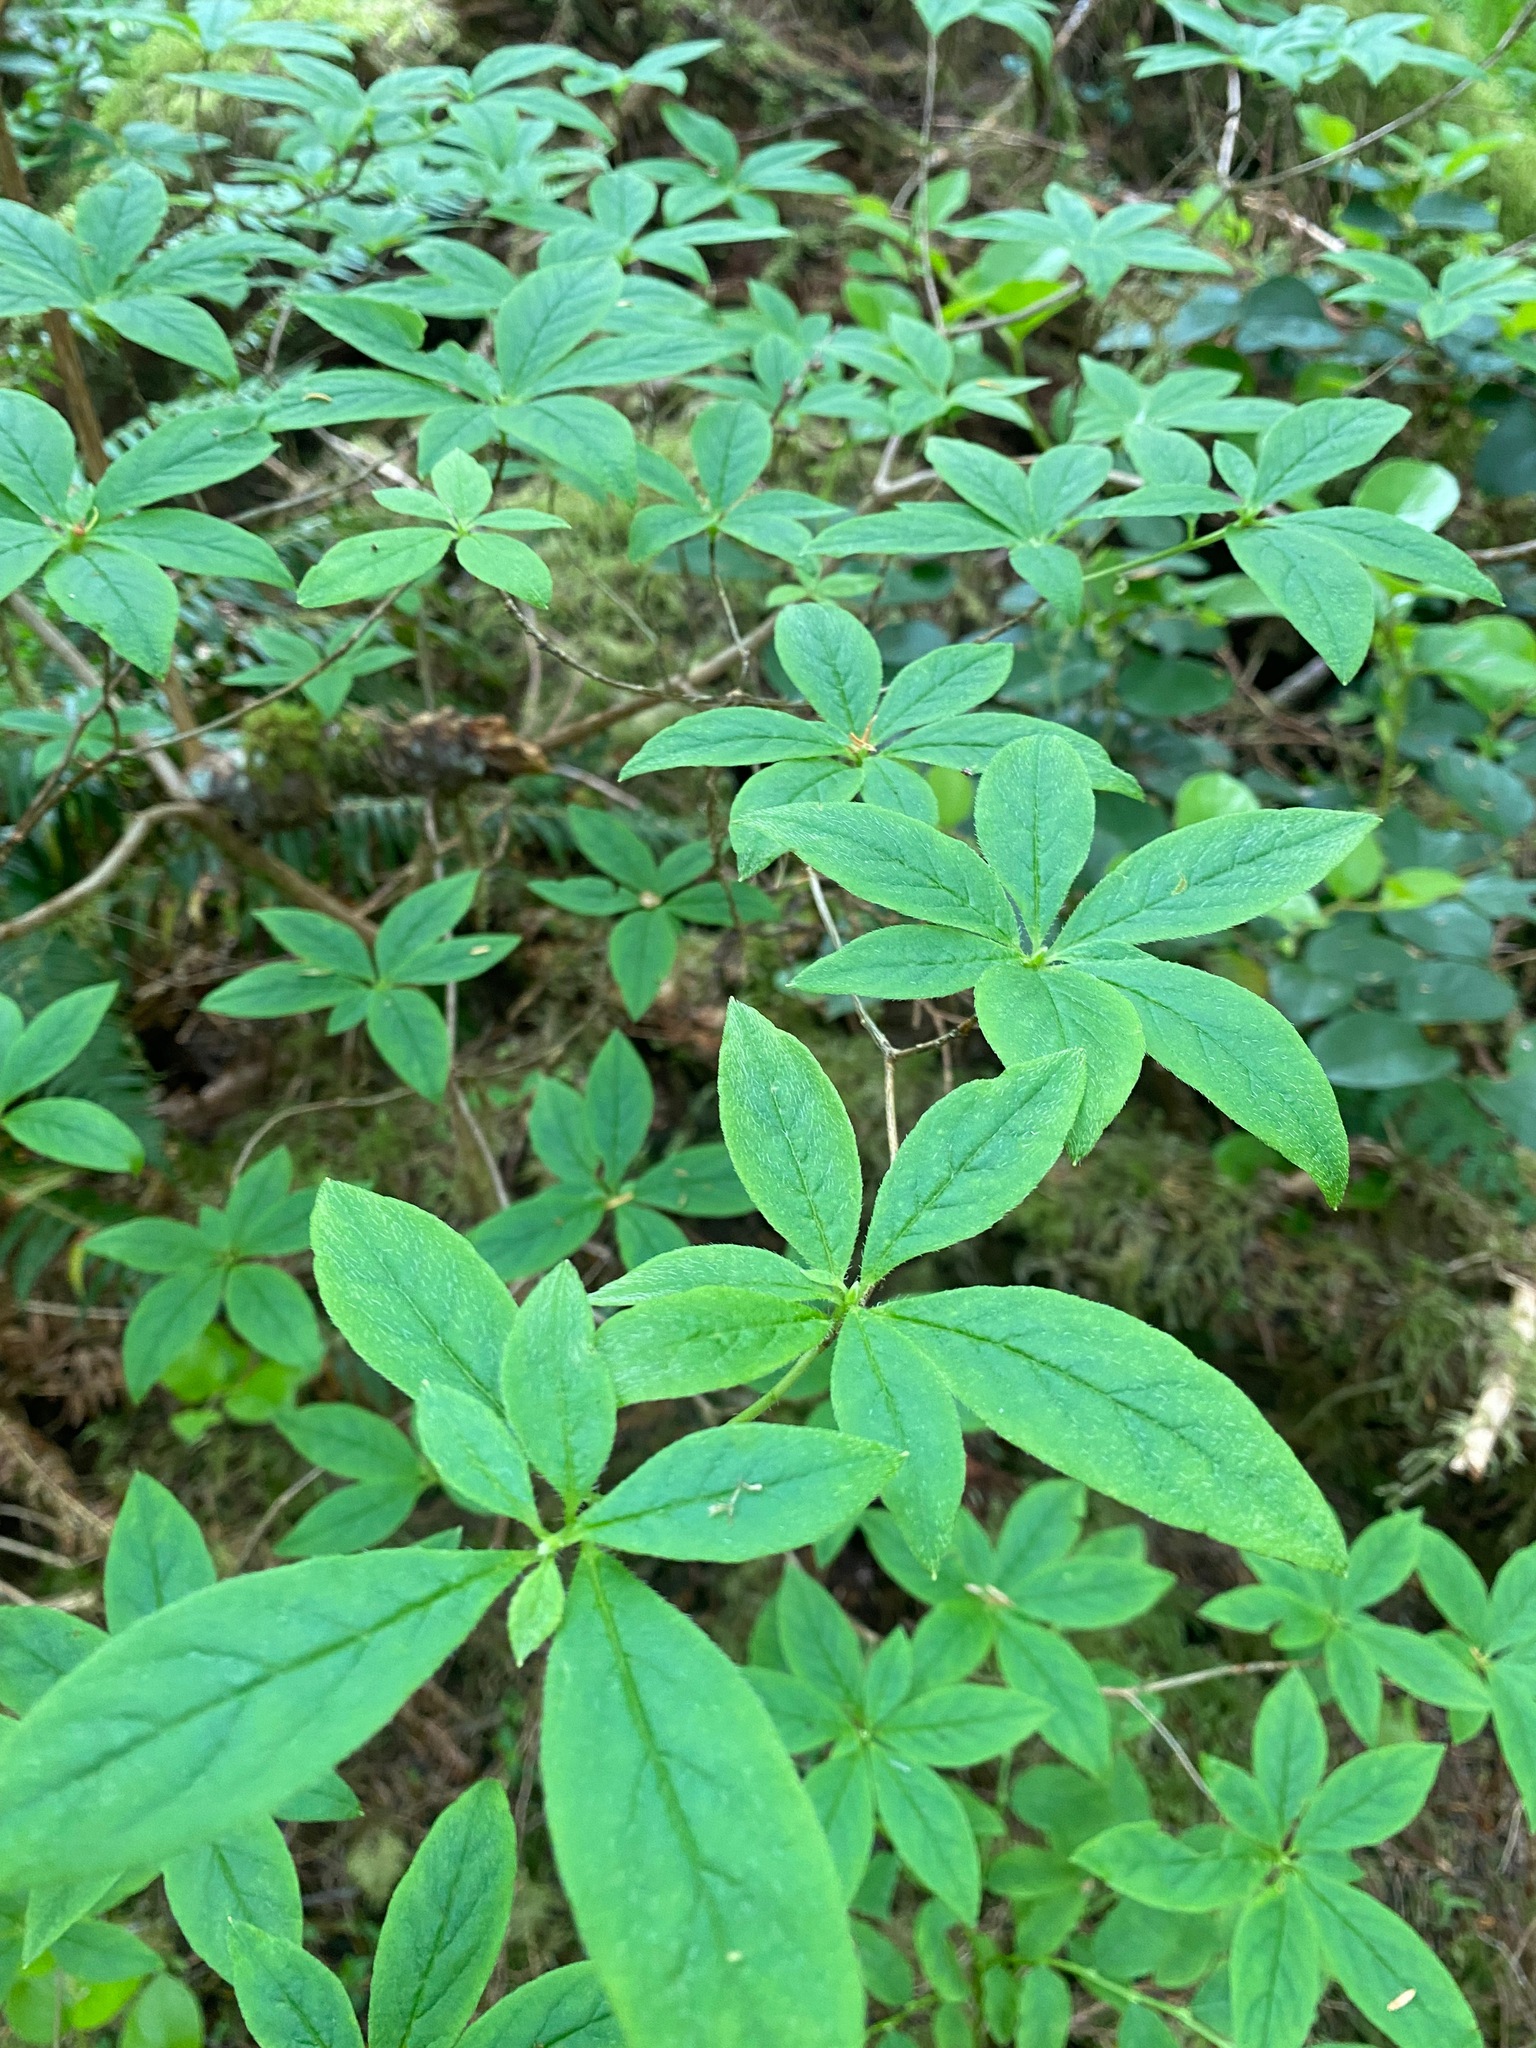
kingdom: Plantae
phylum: Tracheophyta
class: Magnoliopsida
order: Ericales
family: Ericaceae
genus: Rhododendron
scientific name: Rhododendron menziesii
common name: Pacific menziesia
